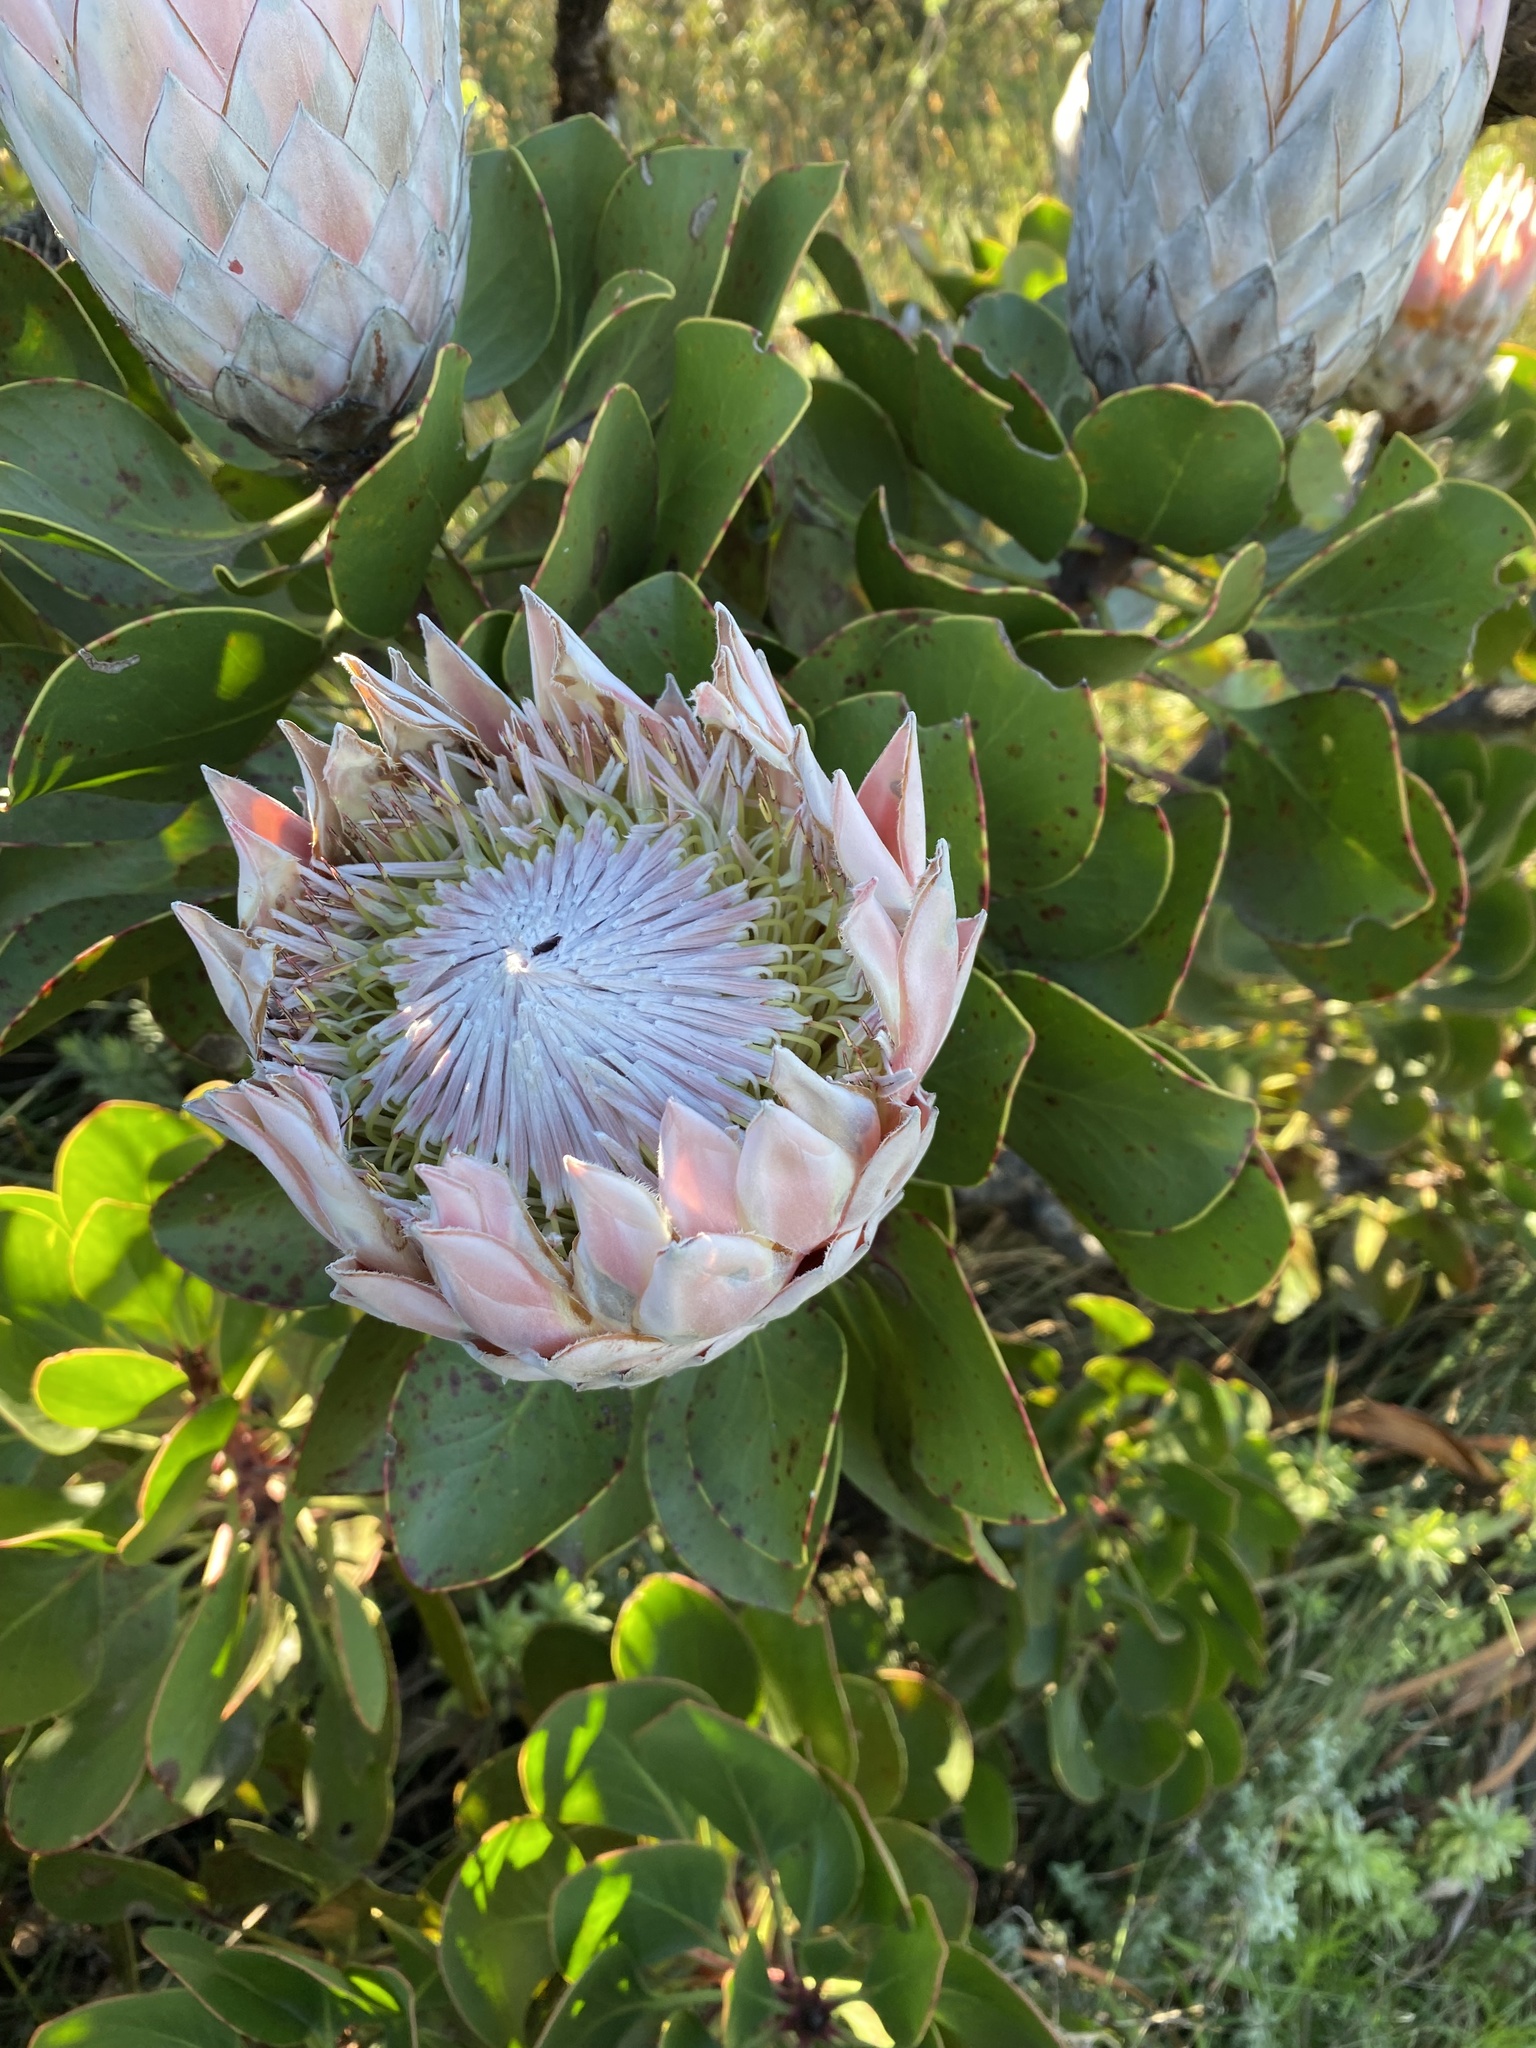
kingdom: Plantae
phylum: Tracheophyta
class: Magnoliopsida
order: Proteales
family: Proteaceae
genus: Protea
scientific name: Protea cynaroides
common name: King protea
